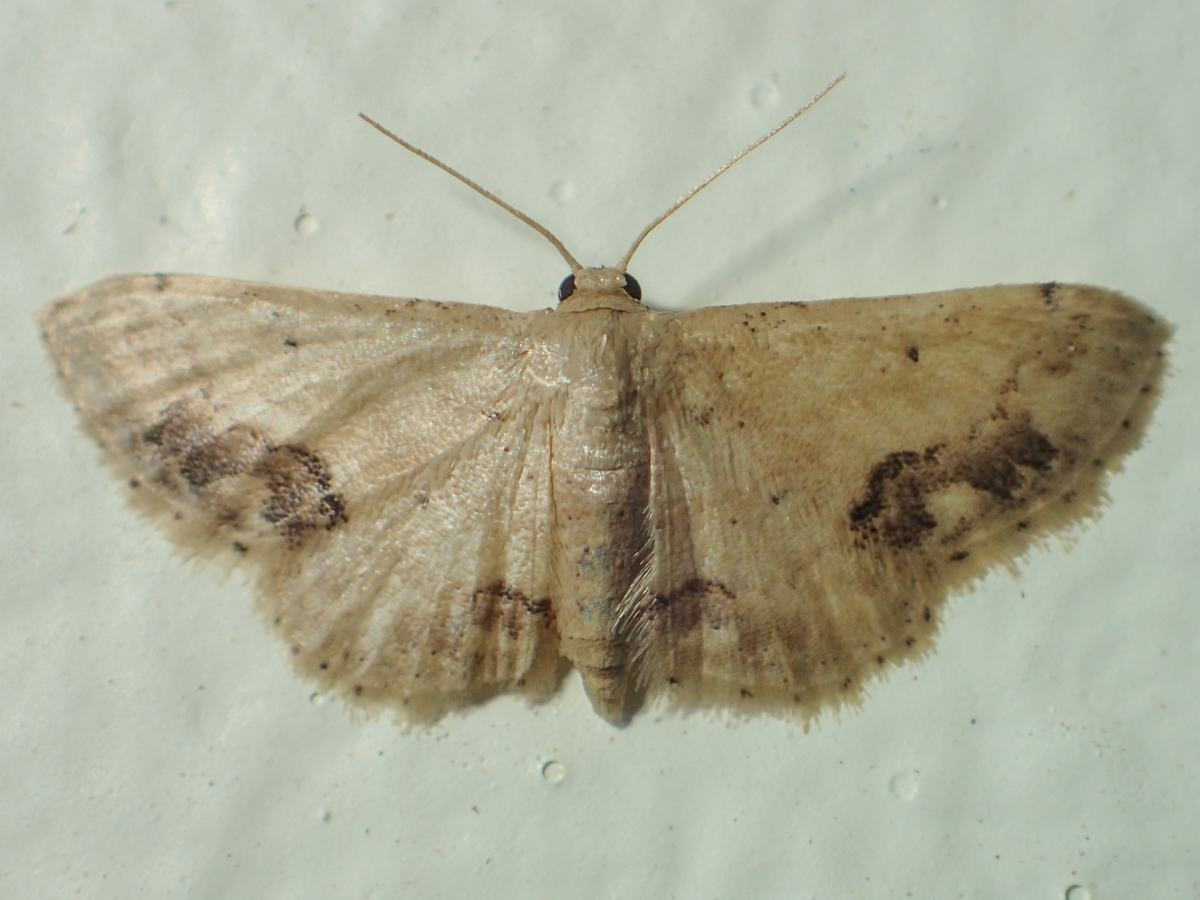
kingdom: Animalia
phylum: Arthropoda
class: Insecta
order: Lepidoptera
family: Geometridae
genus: Idaea
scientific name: Idaea chotaria
